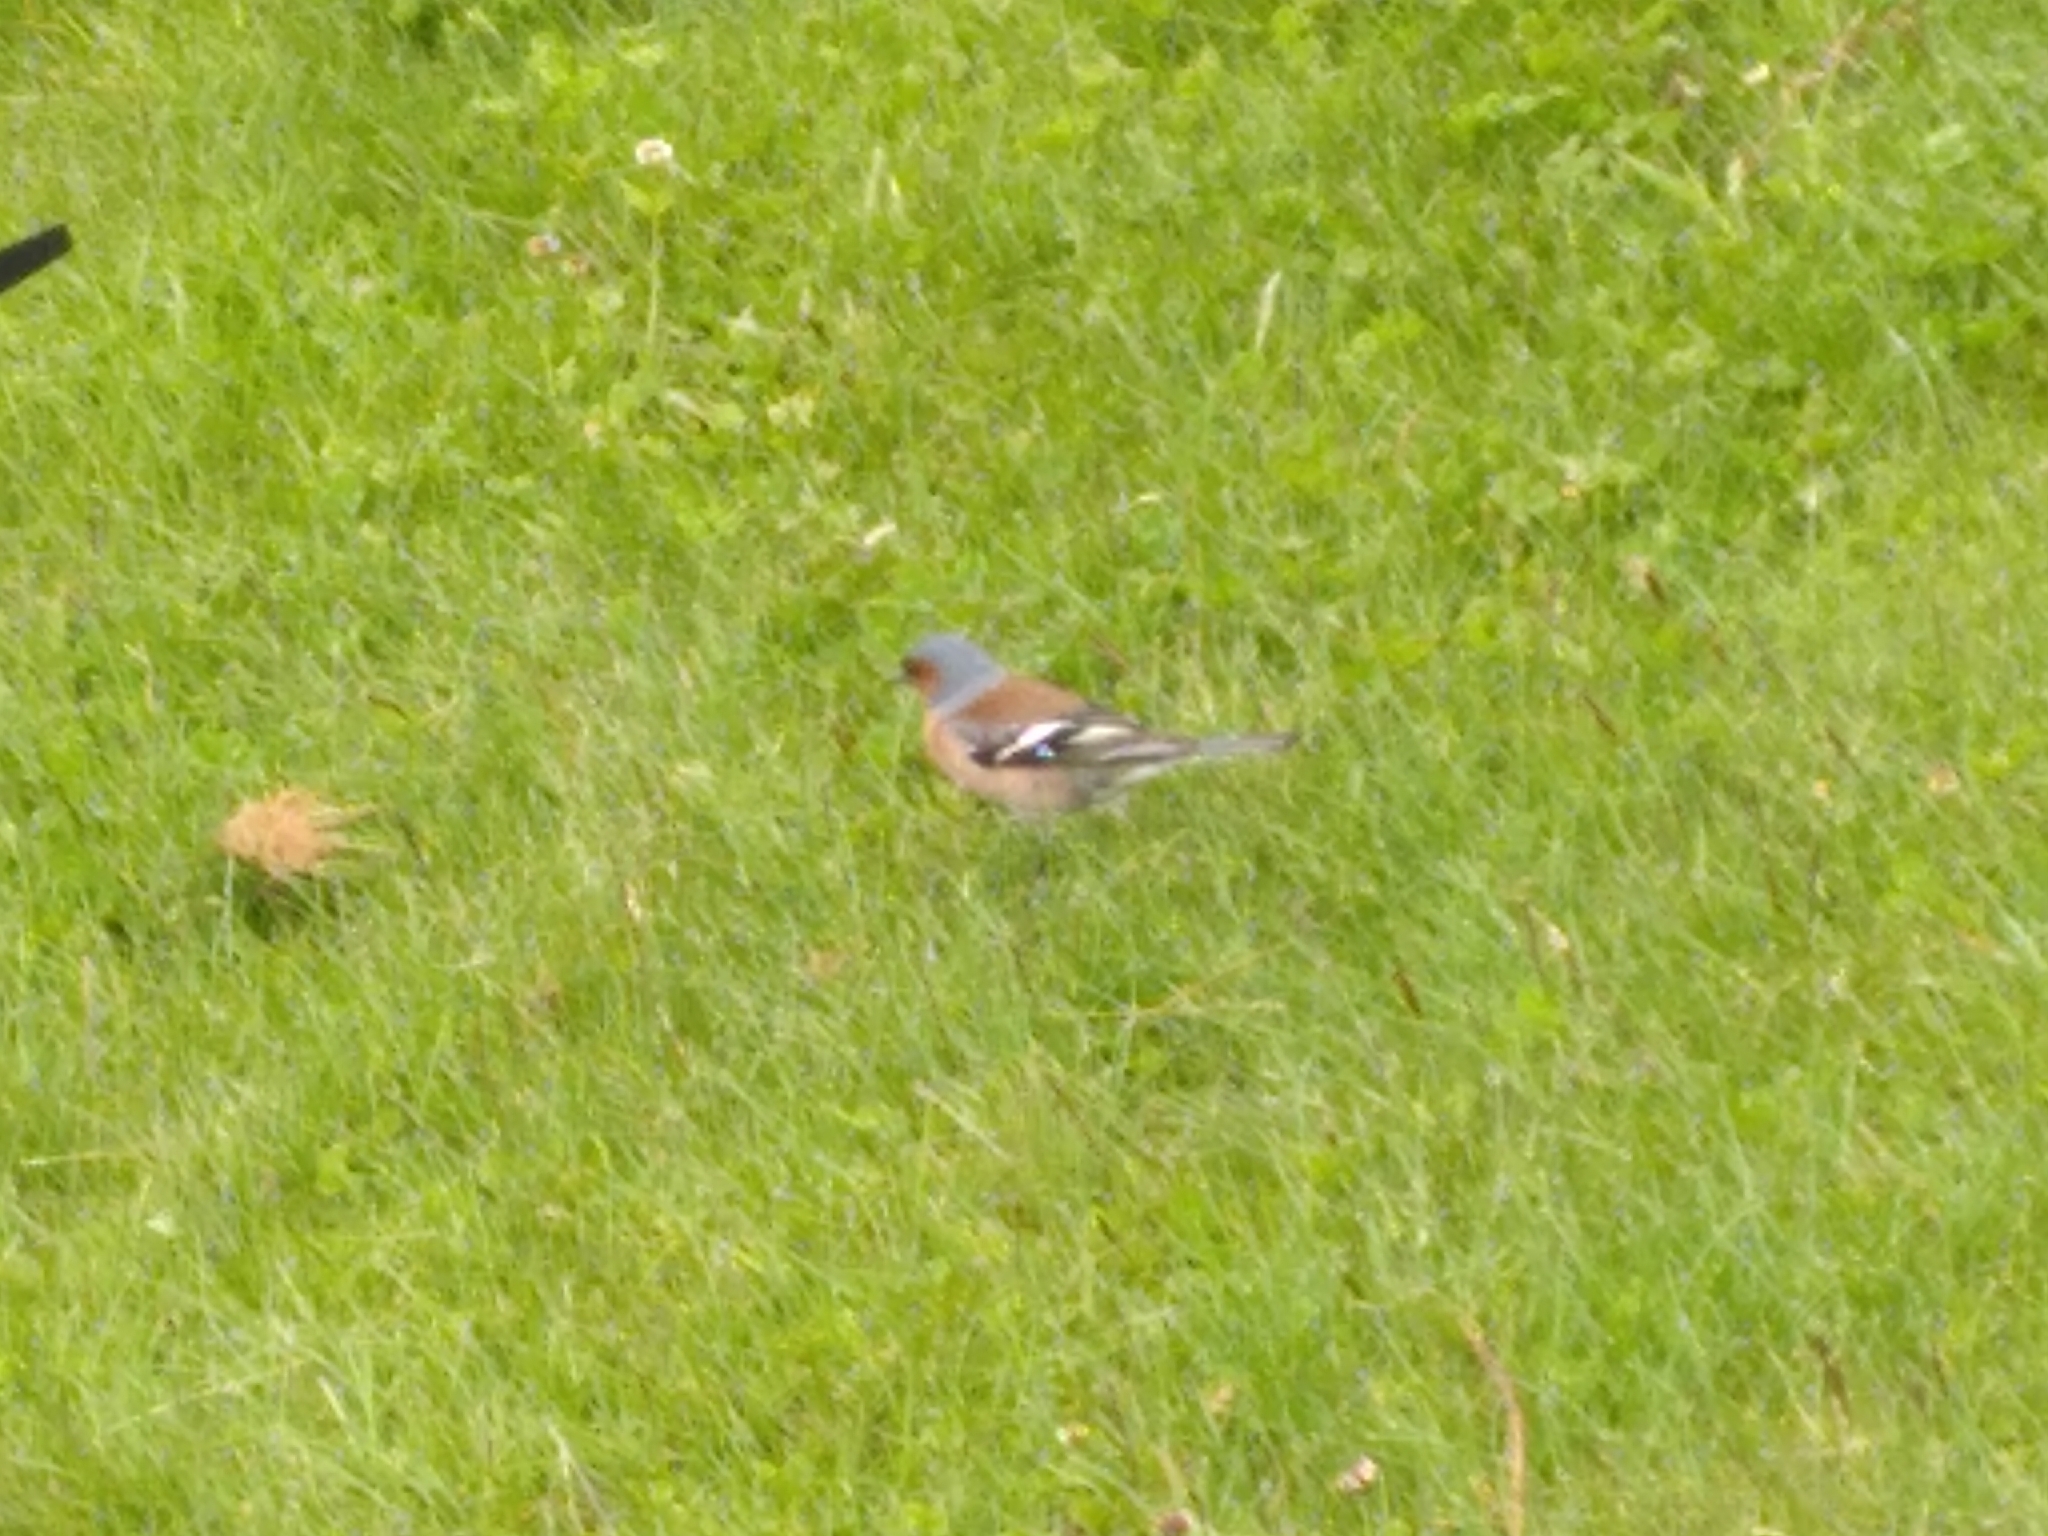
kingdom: Animalia
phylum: Chordata
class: Aves
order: Passeriformes
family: Fringillidae
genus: Fringilla
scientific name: Fringilla coelebs
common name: Common chaffinch
